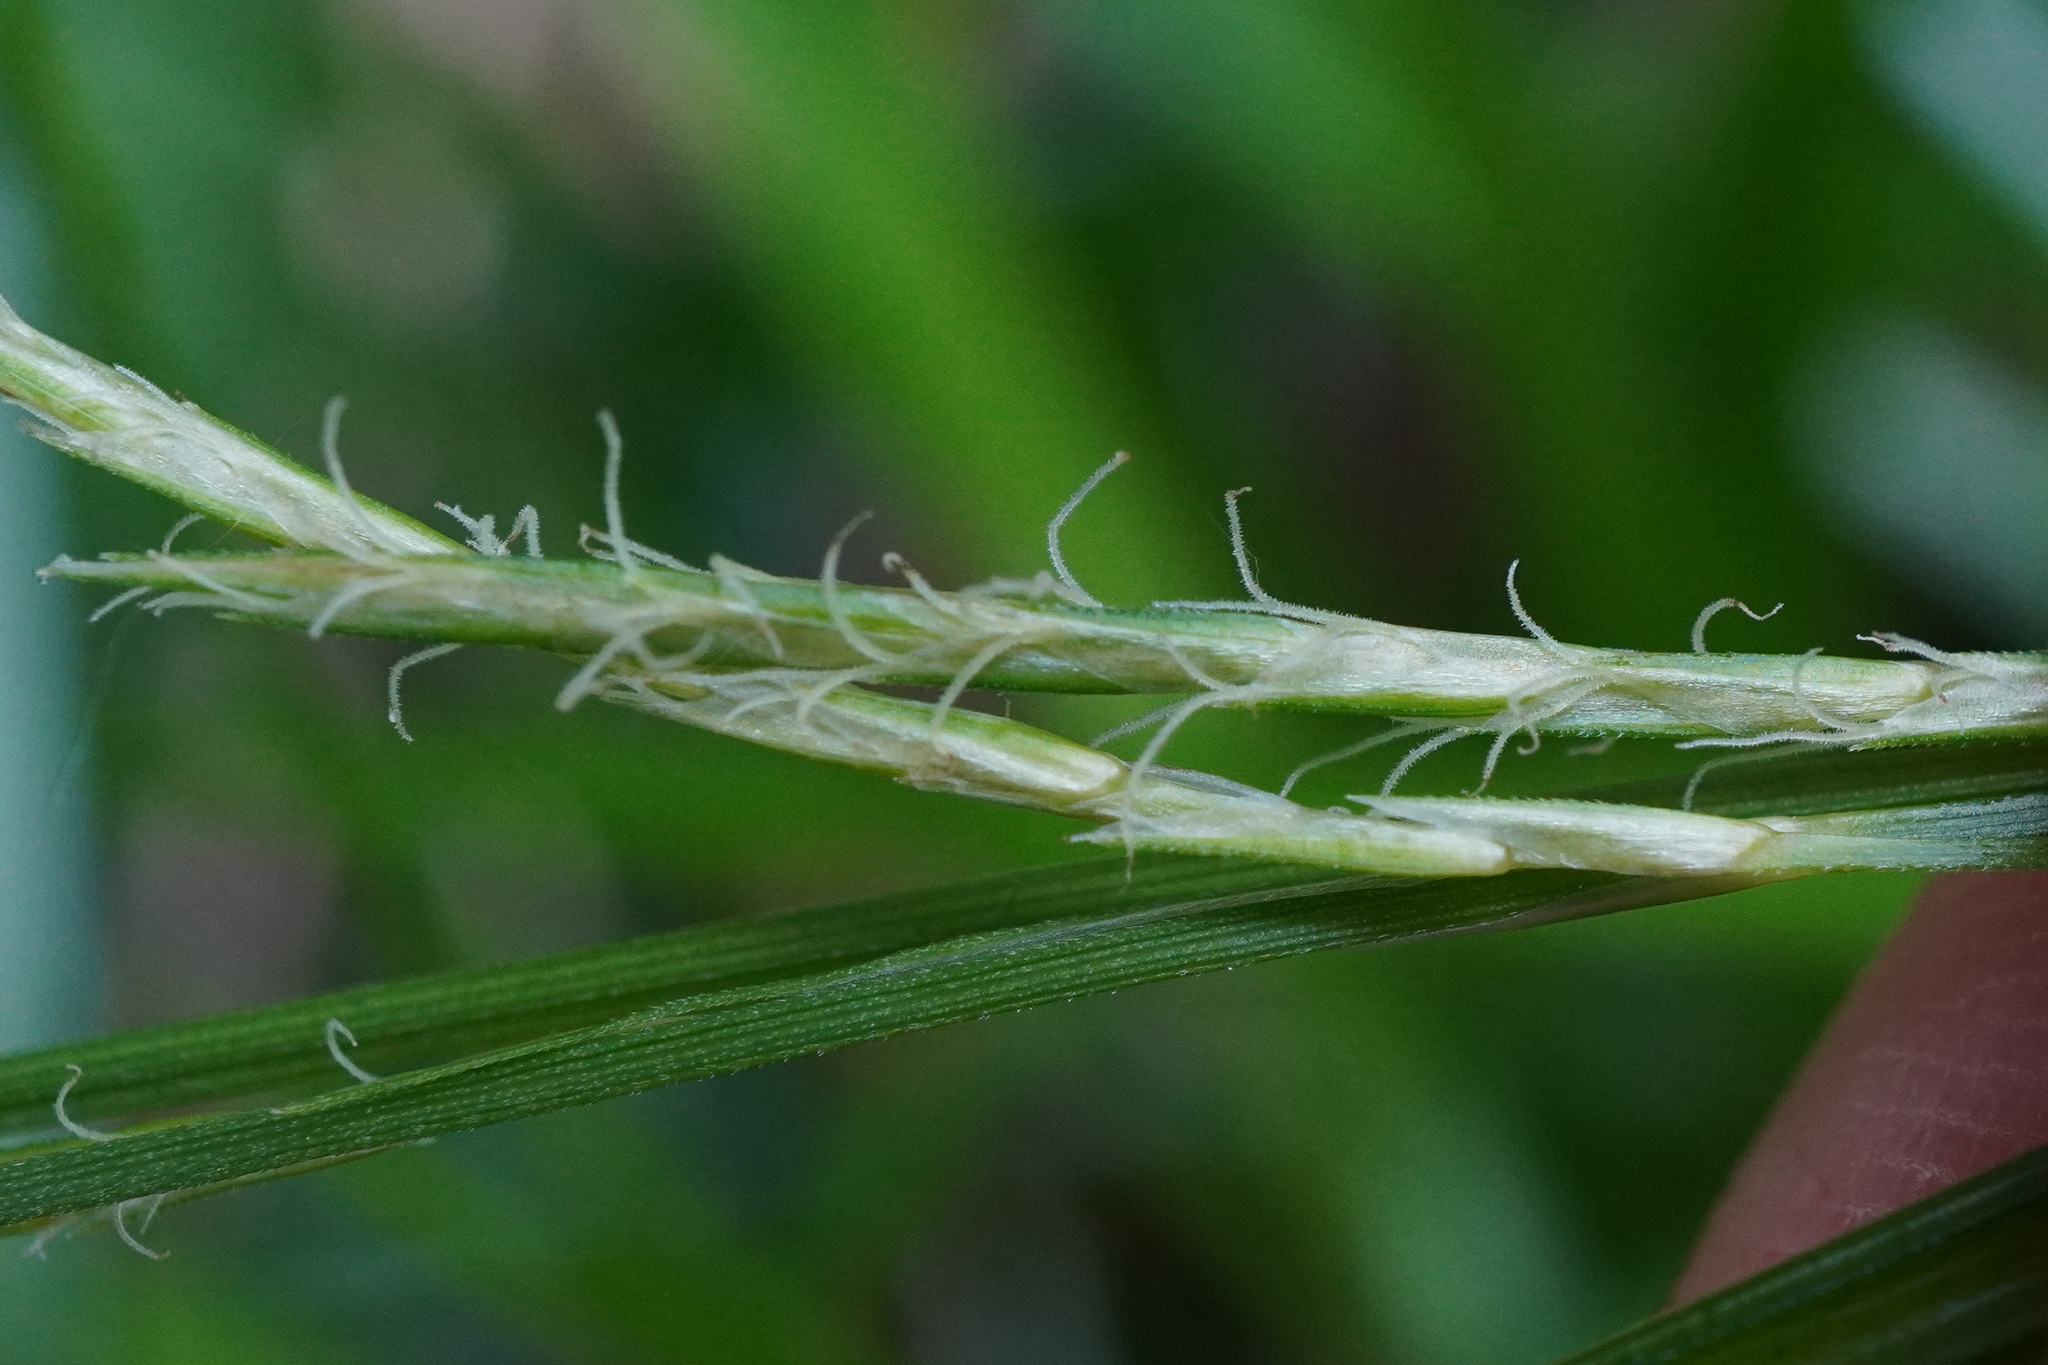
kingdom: Plantae
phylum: Tracheophyta
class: Liliopsida
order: Poales
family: Cyperaceae
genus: Carex
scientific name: Carex sylvatica
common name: Wood-sedge
